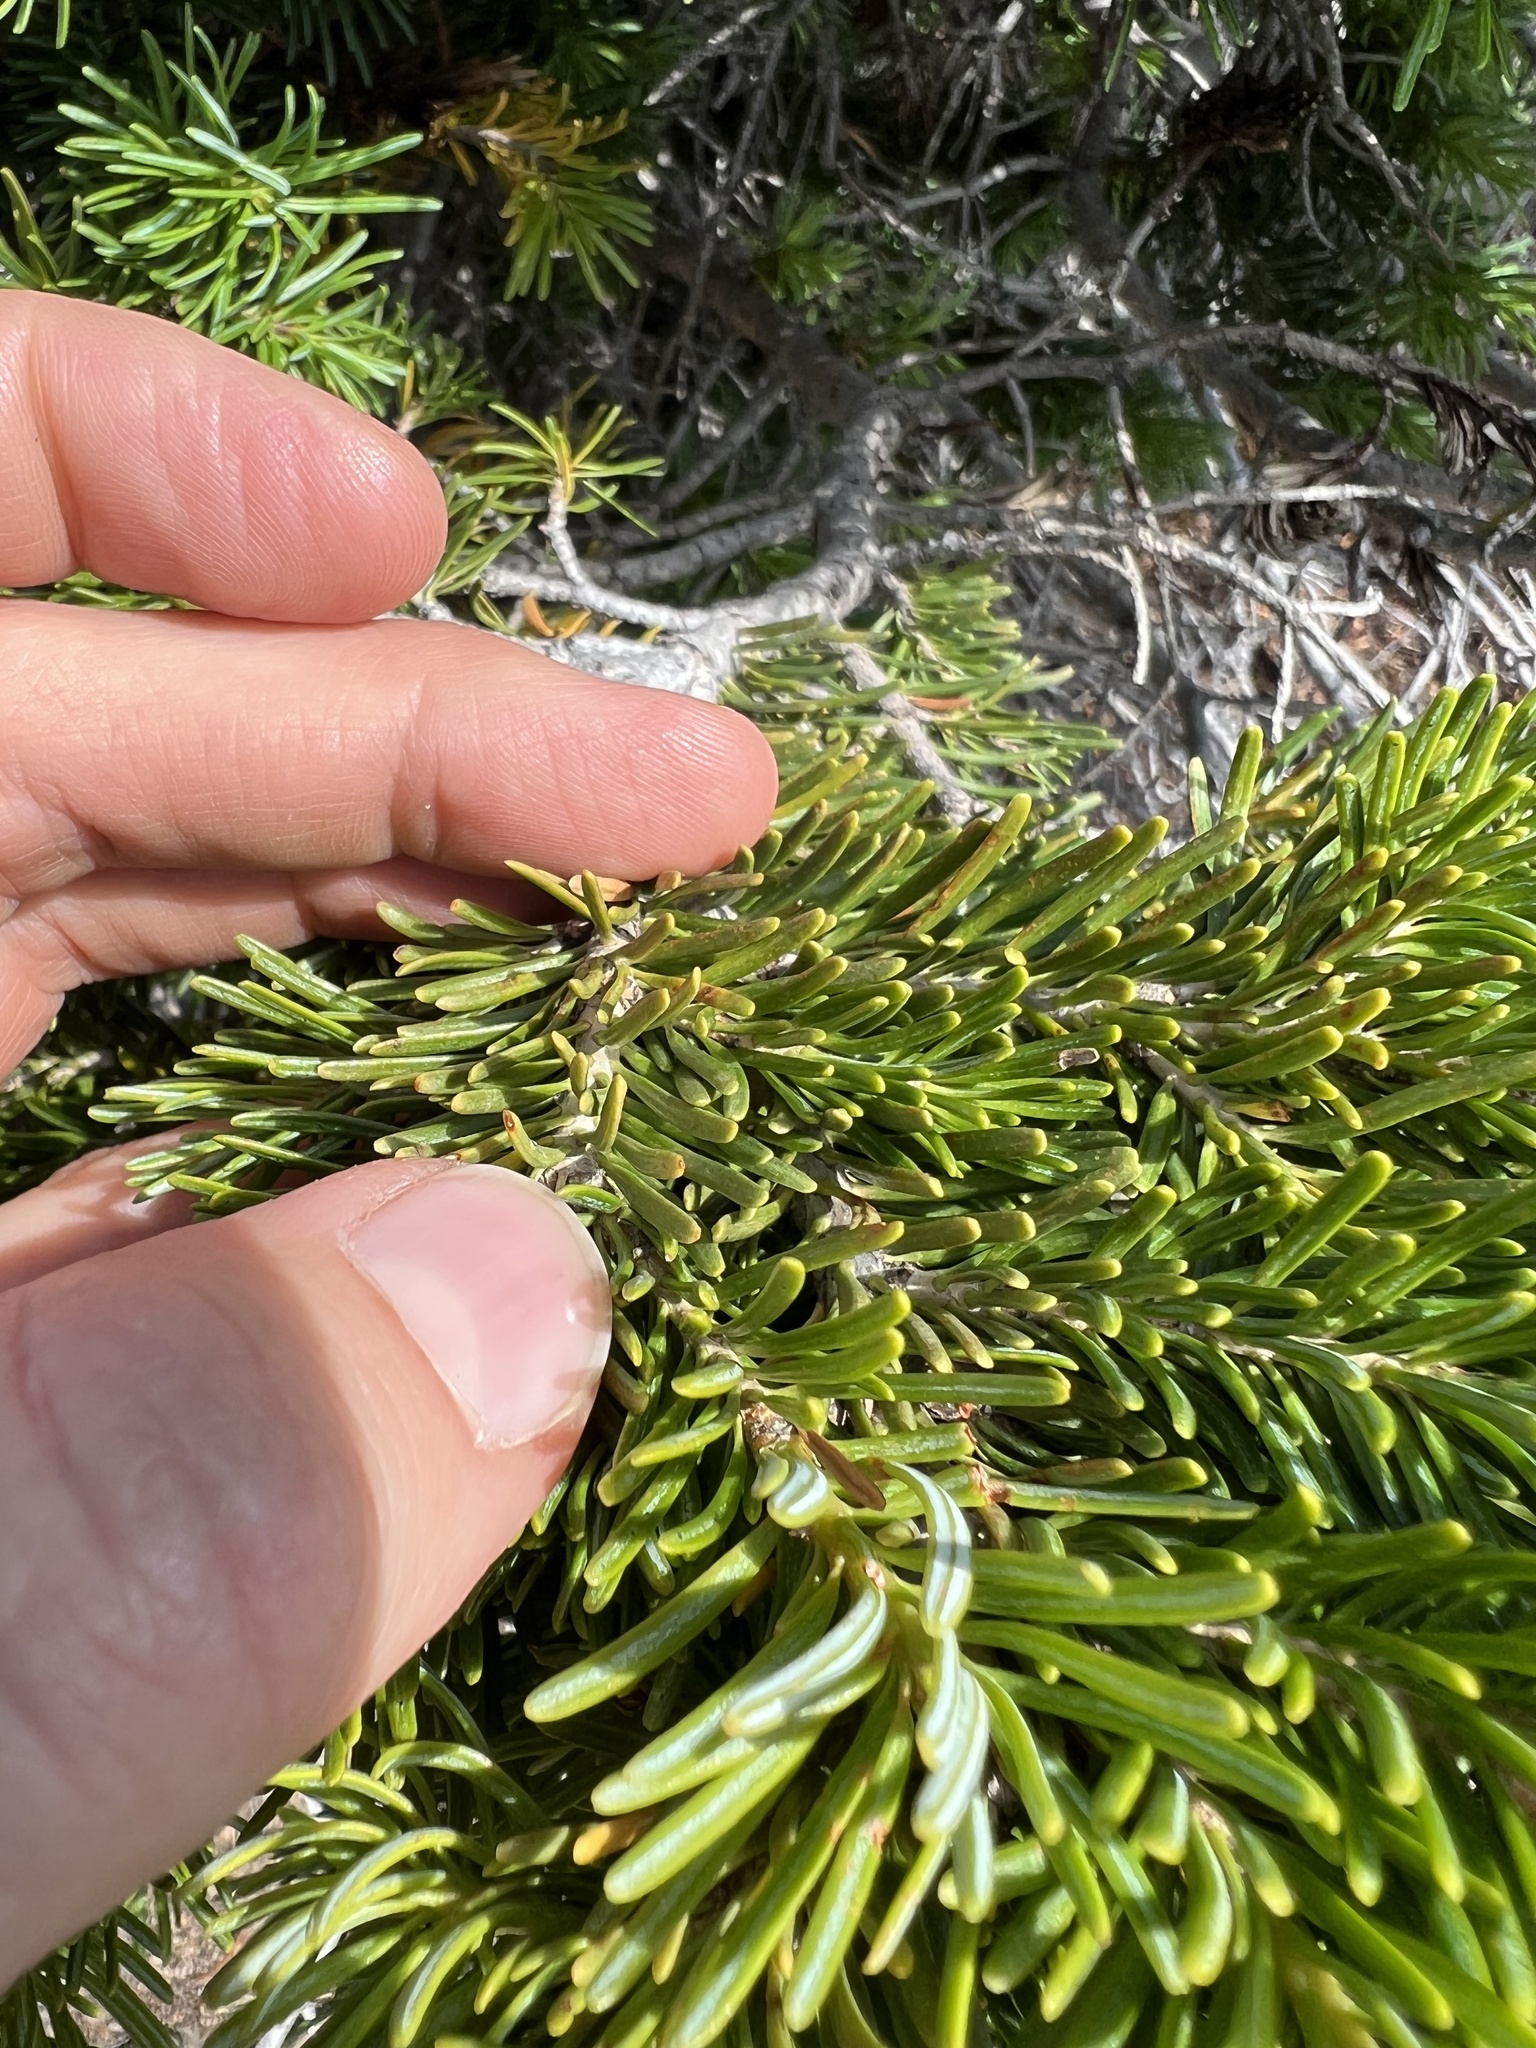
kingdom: Plantae
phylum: Tracheophyta
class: Pinopsida
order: Pinales
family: Pinaceae
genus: Abies
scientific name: Abies lasiocarpa
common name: Subalpine fir
